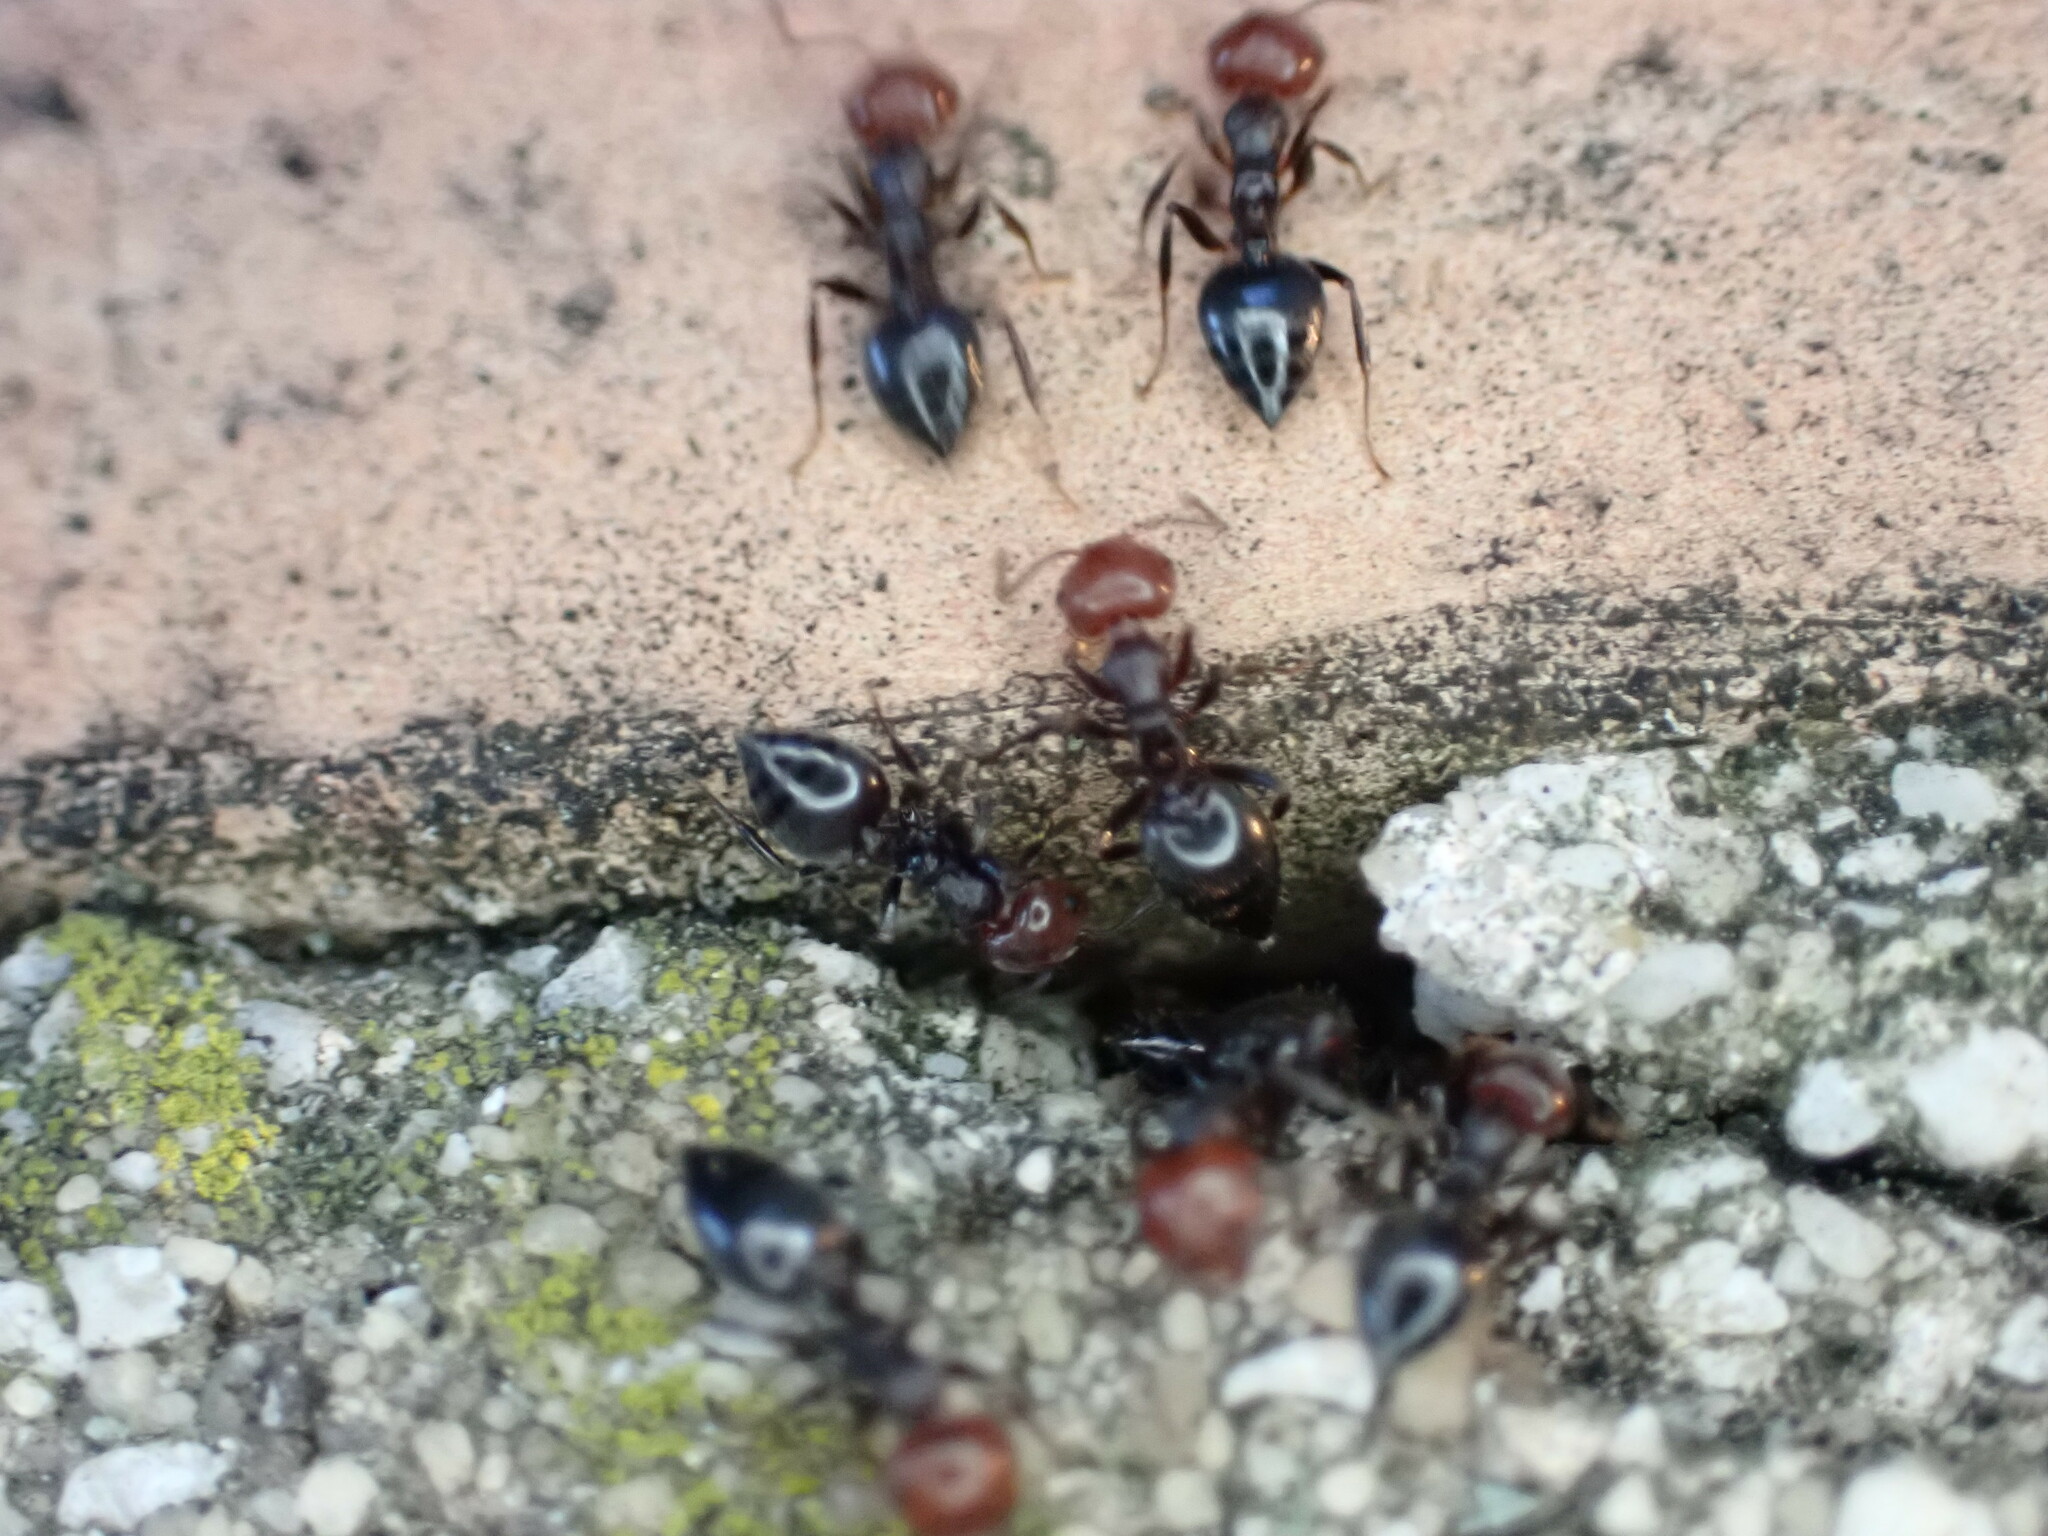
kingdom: Animalia
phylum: Arthropoda
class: Insecta
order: Hymenoptera
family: Formicidae
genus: Crematogaster
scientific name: Crematogaster scutellaris
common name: Fourmi du liège
